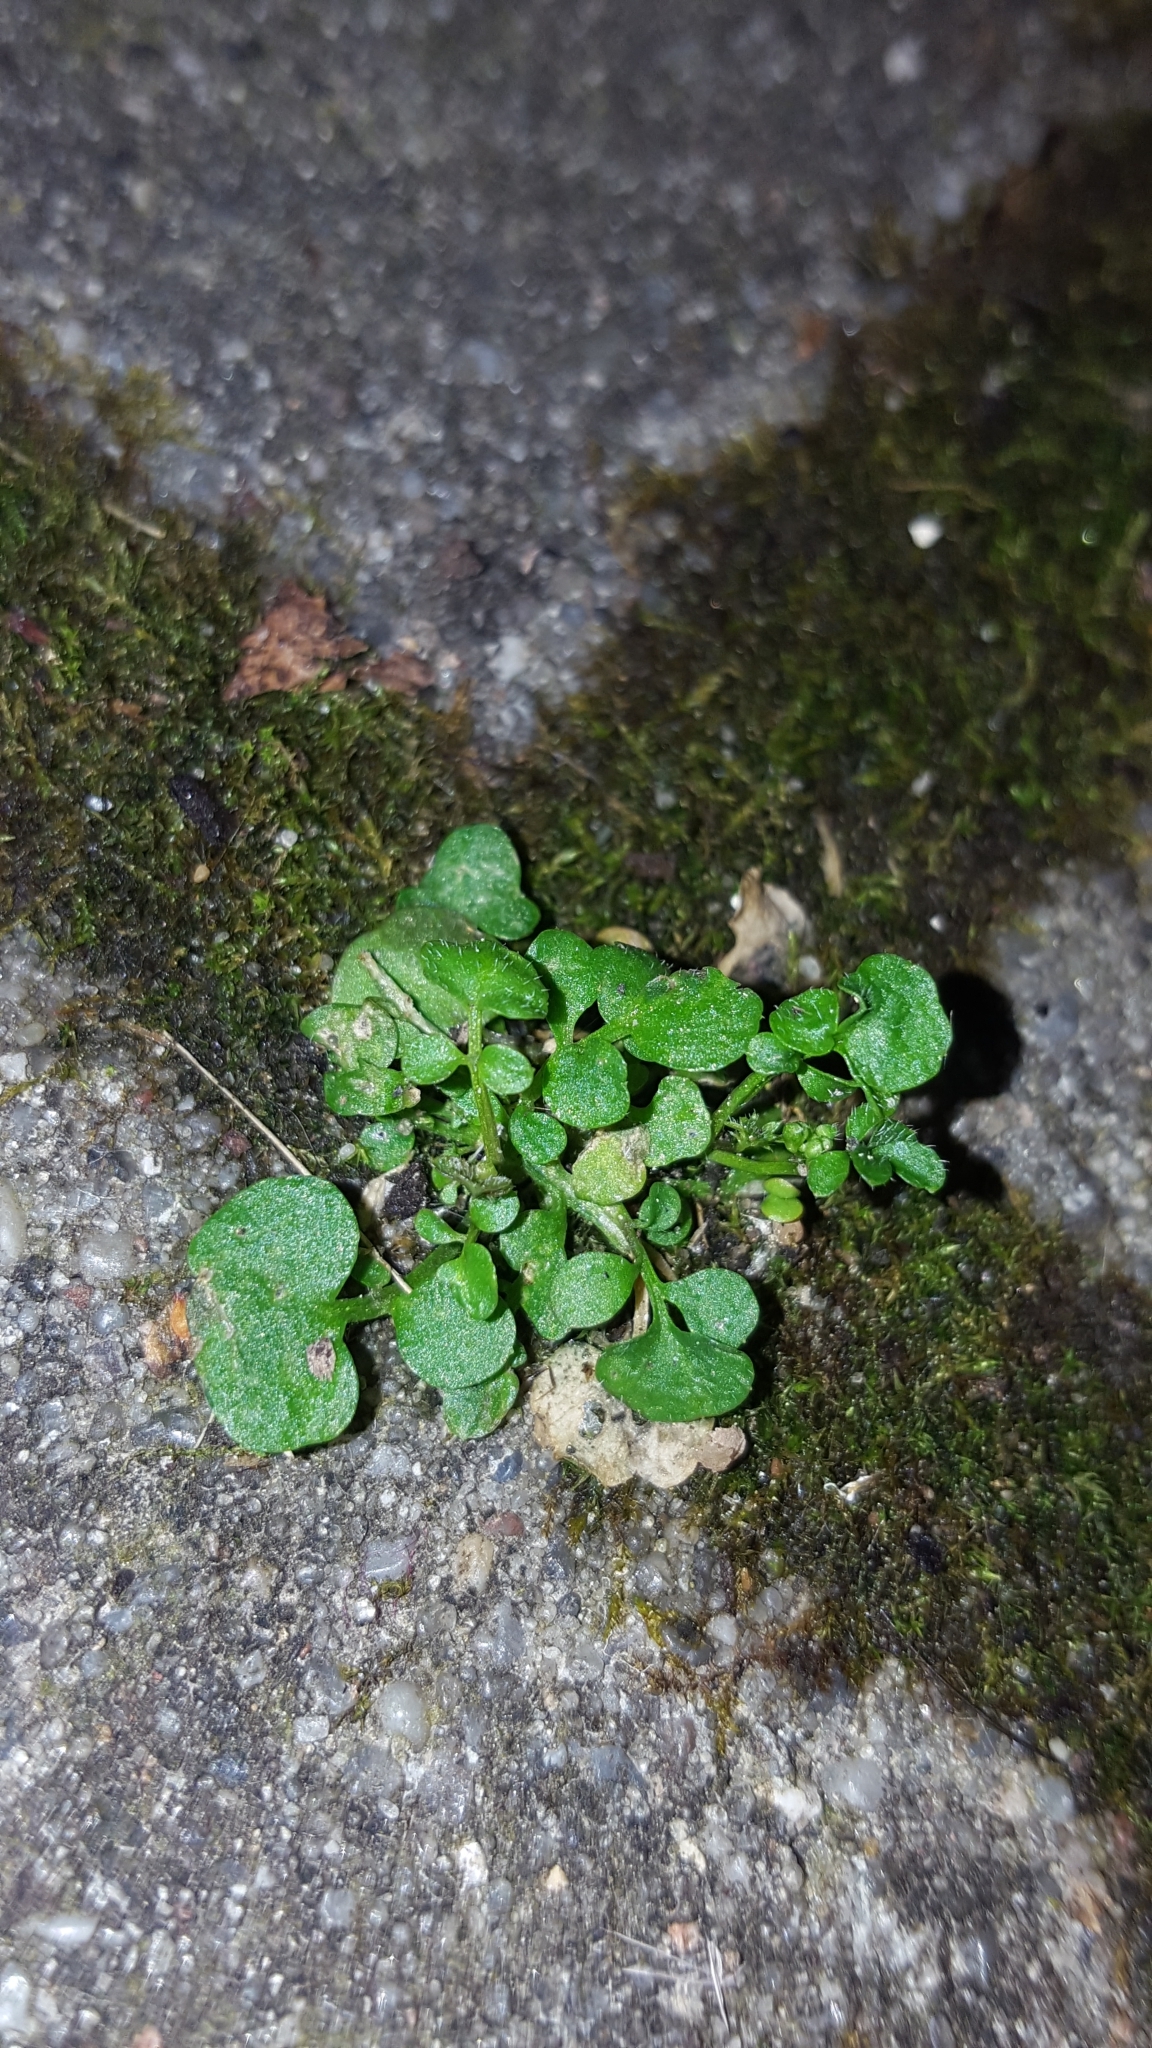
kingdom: Plantae
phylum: Tracheophyta
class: Magnoliopsida
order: Brassicales
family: Brassicaceae
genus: Cardamine
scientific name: Cardamine hirsuta
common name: Hairy bittercress
